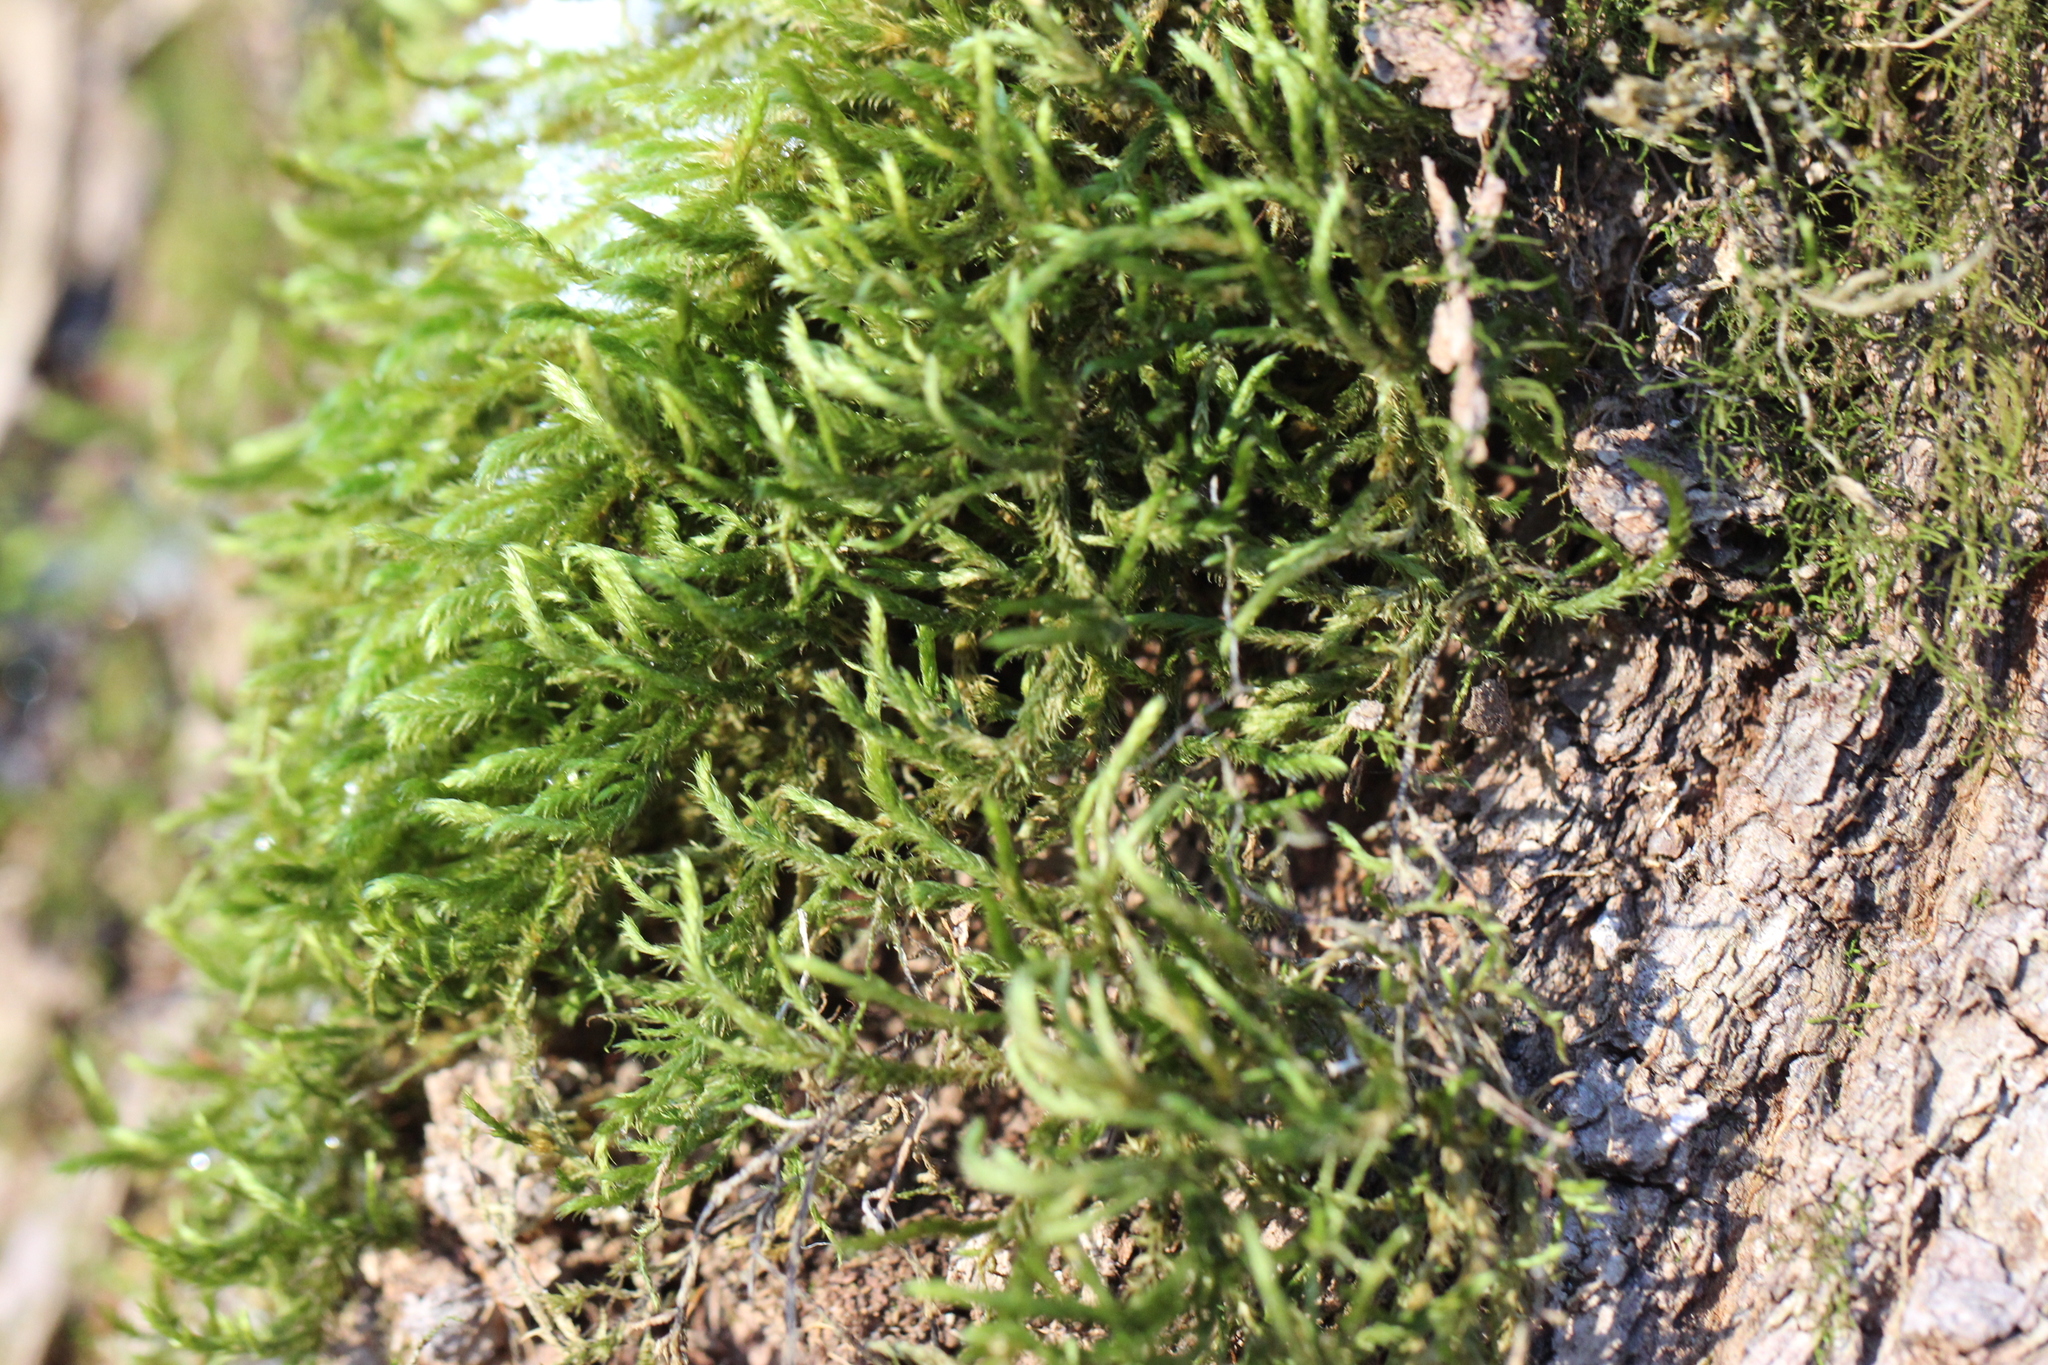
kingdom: Plantae
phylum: Bryophyta
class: Bryopsida
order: Hypnales
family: Leucodontaceae
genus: Leucodon
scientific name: Leucodon sciuroides
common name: Squirrel-tail moss
